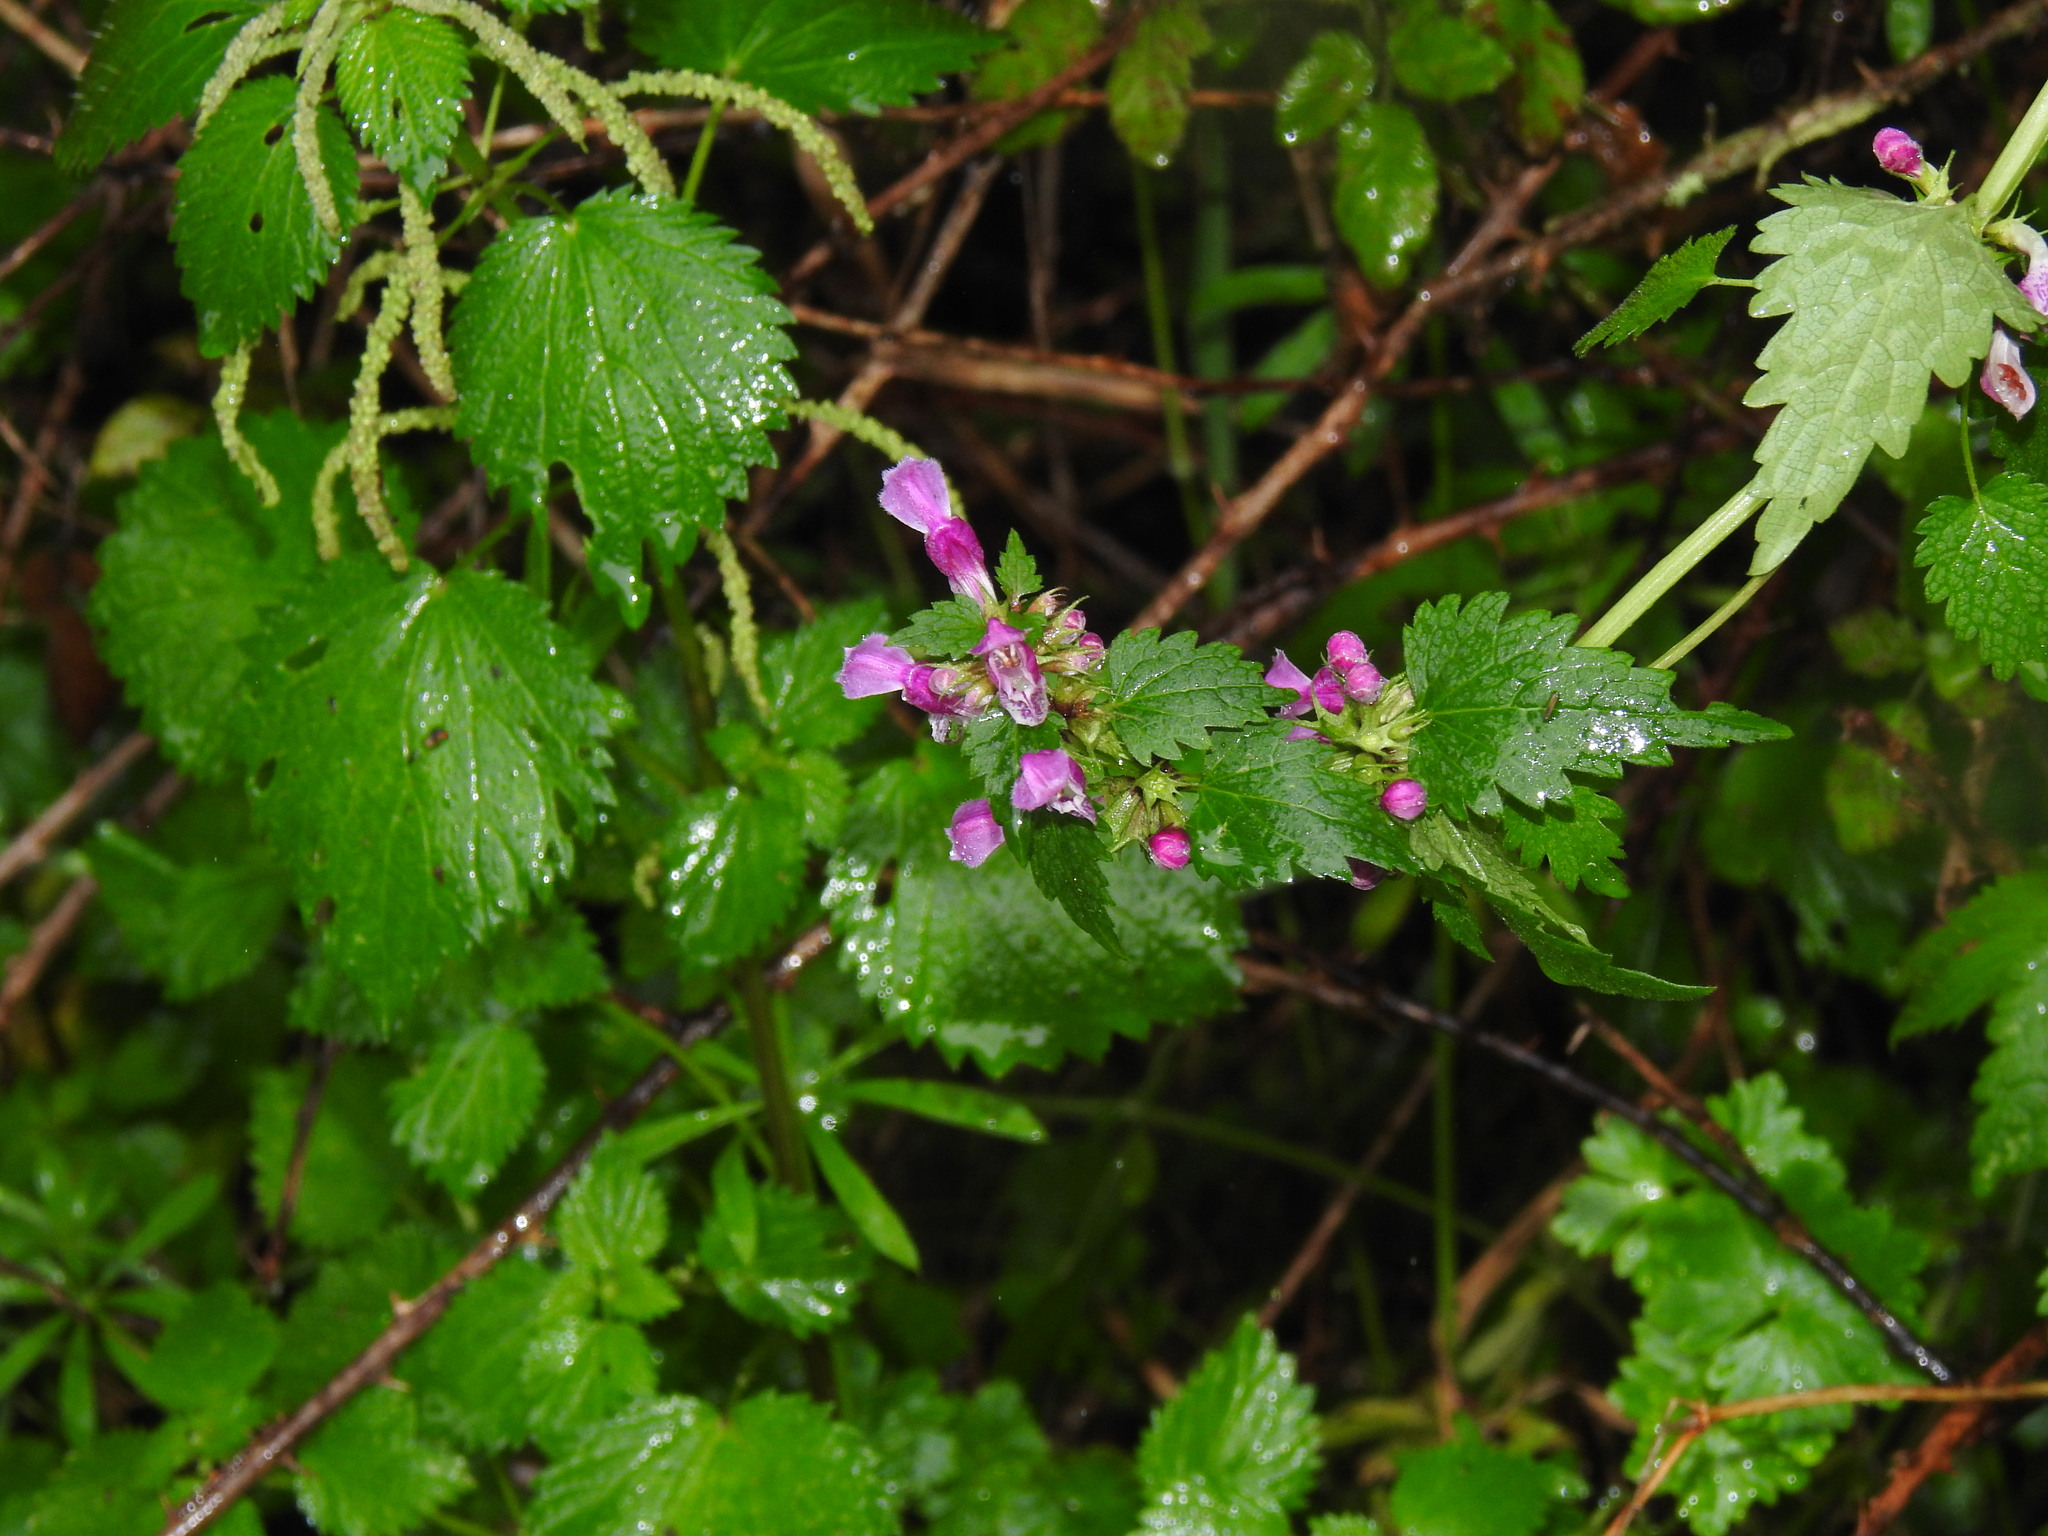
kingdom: Plantae
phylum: Tracheophyta
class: Magnoliopsida
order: Lamiales
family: Lamiaceae
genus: Lamium
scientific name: Lamium maculatum
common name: Spotted dead-nettle
